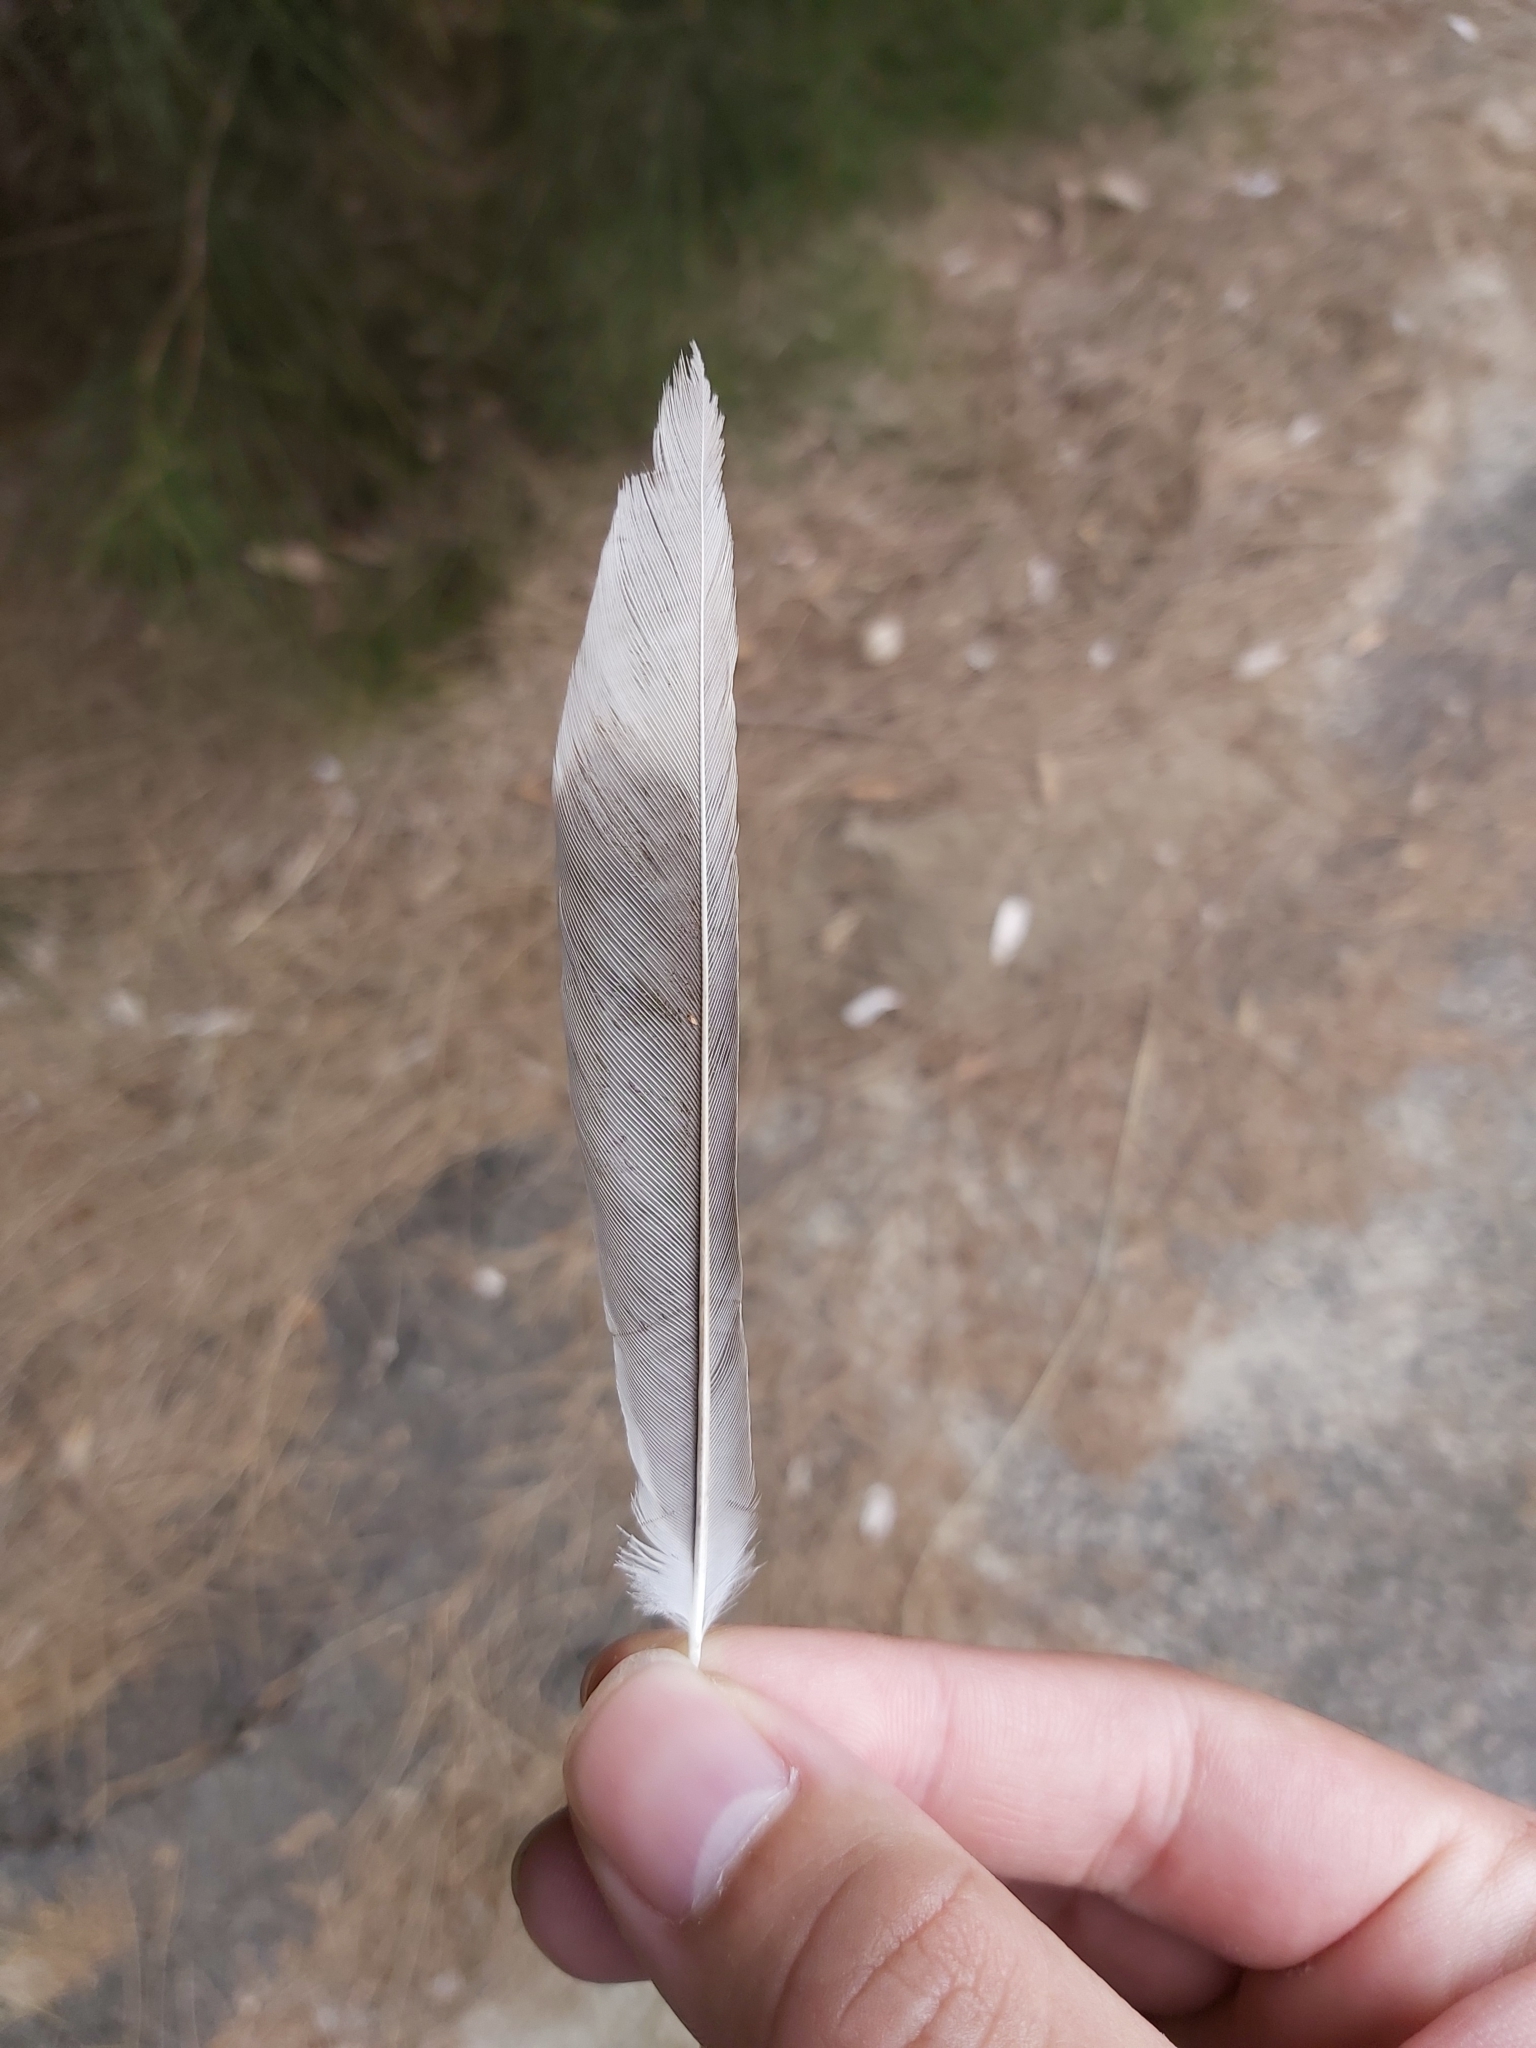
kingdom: Animalia
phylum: Chordata
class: Aves
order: Passeriformes
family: Meliphagidae
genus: Manorina
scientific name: Manorina melanocephala
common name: Noisy miner
